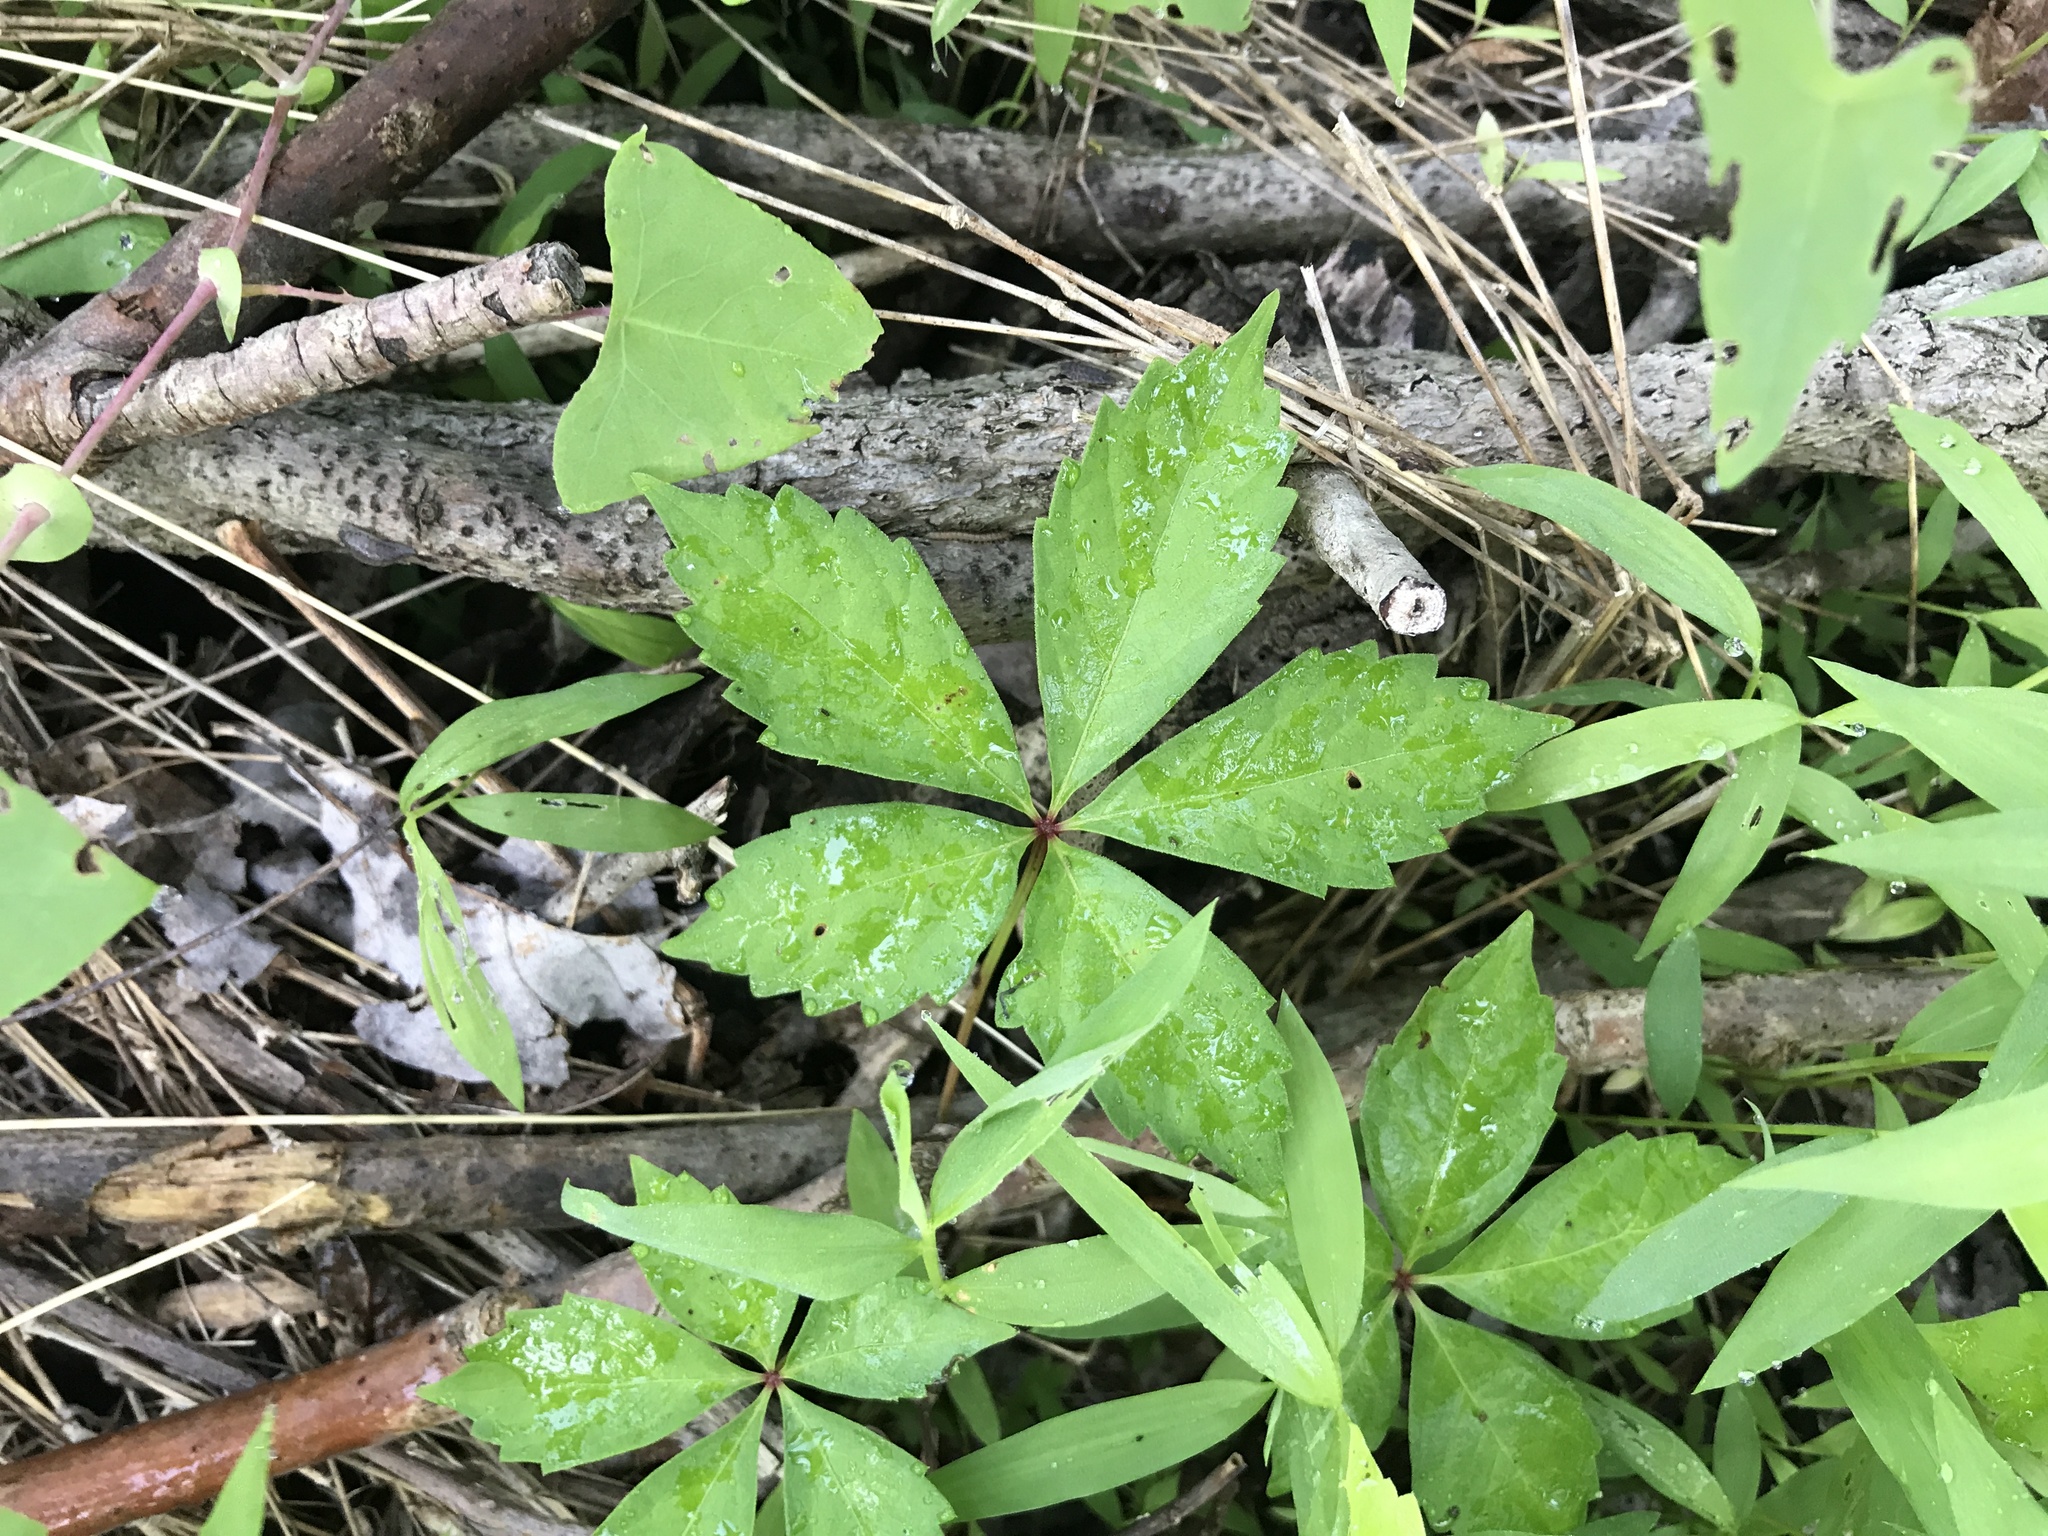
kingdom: Plantae
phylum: Tracheophyta
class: Magnoliopsida
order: Vitales
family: Vitaceae
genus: Parthenocissus
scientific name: Parthenocissus quinquefolia
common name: Virginia-creeper
